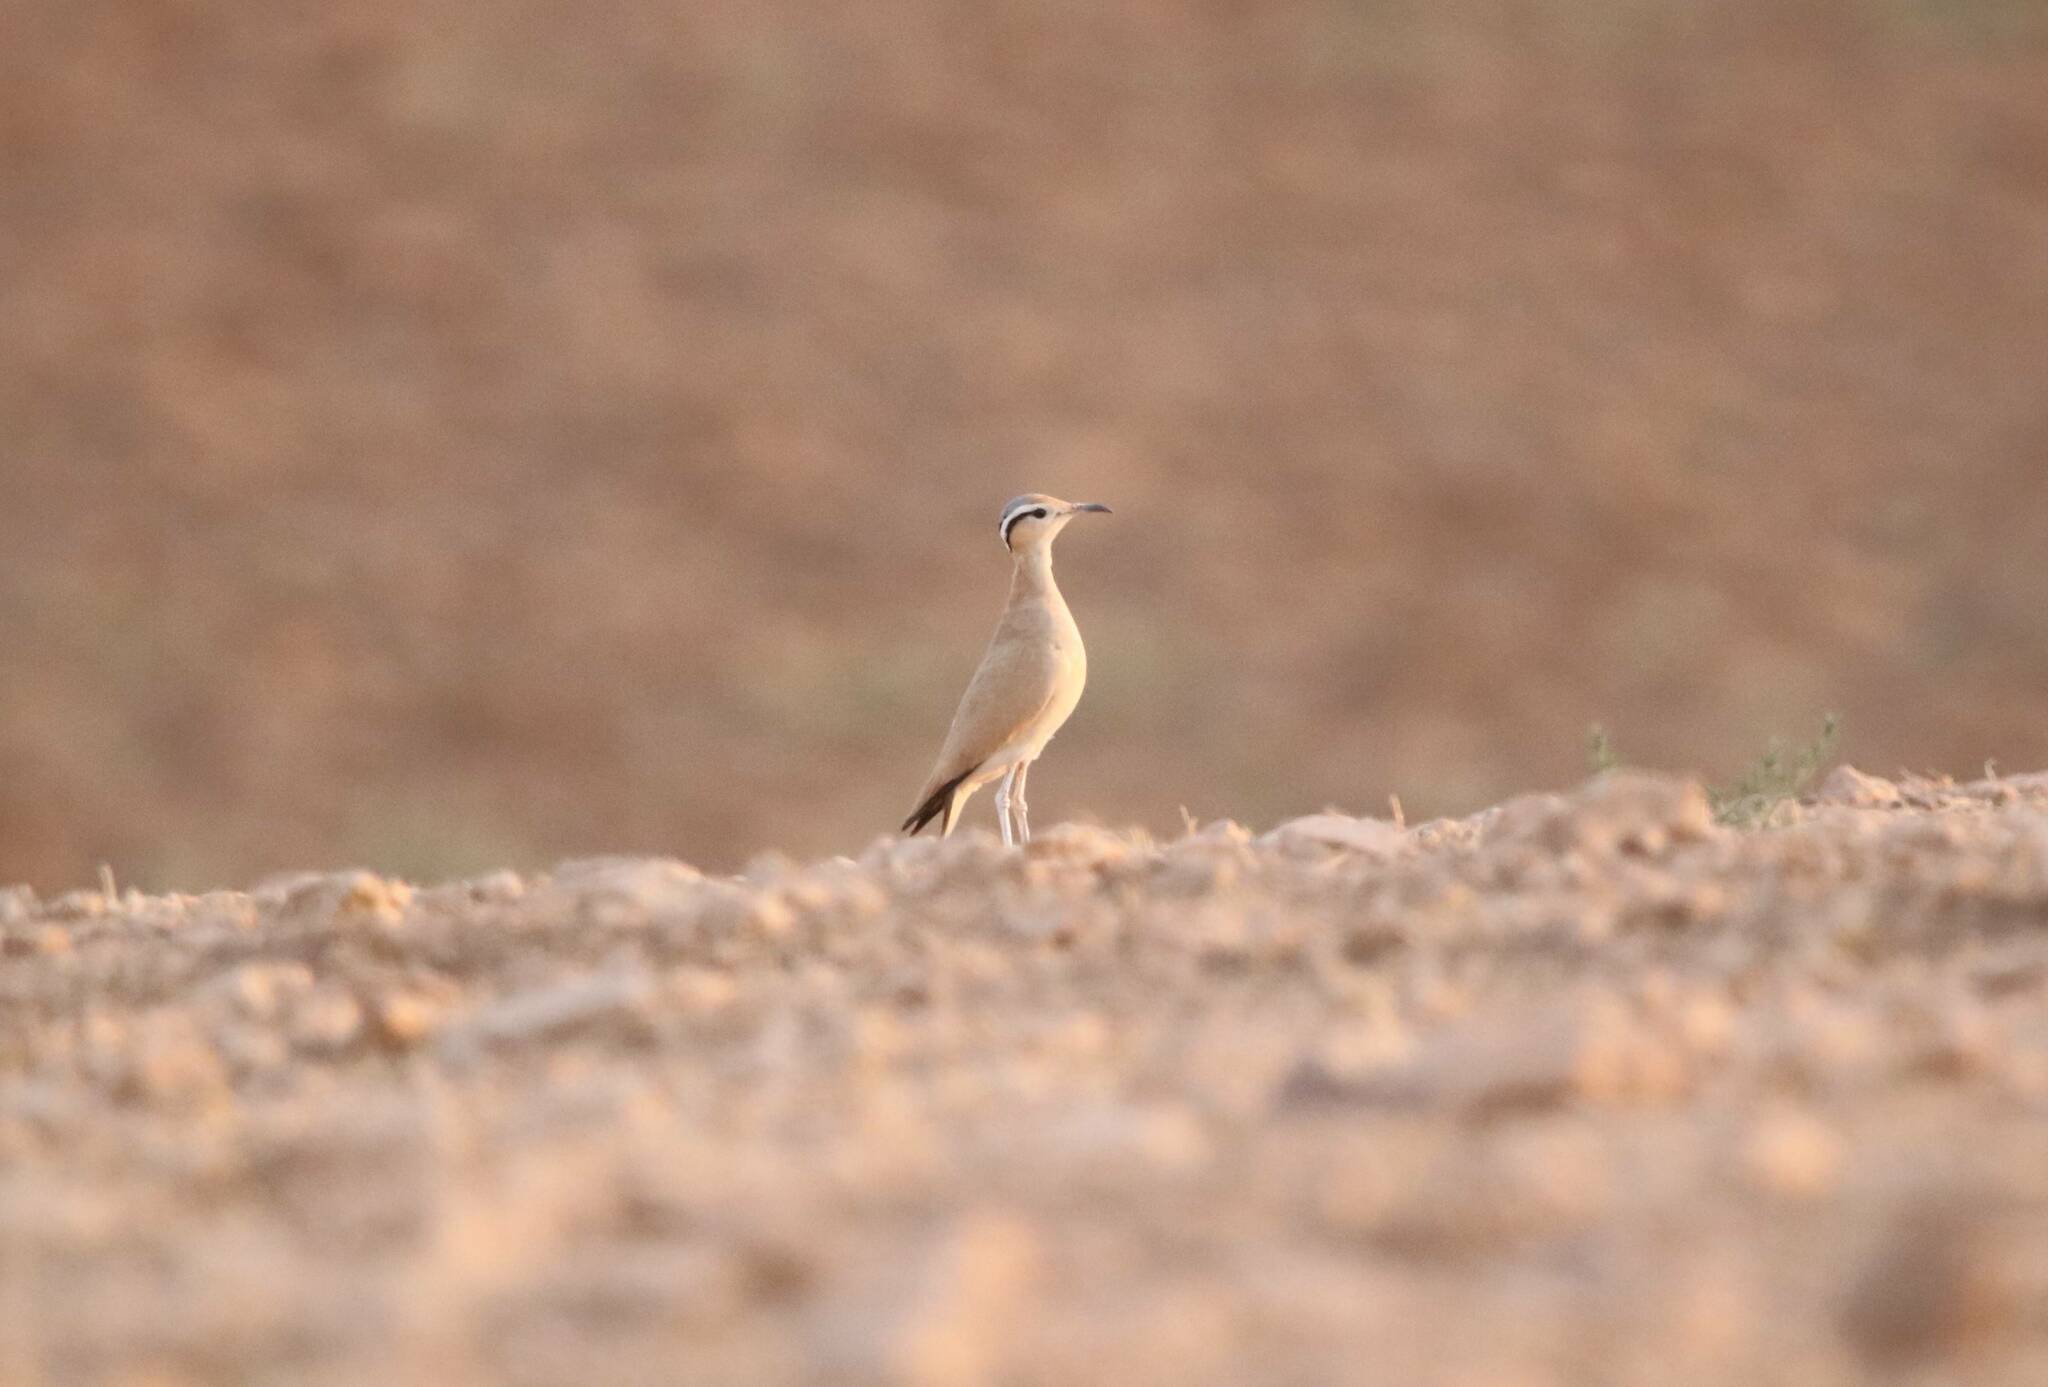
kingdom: Animalia
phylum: Chordata
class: Aves
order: Charadriiformes
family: Glareolidae
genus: Cursorius
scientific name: Cursorius cursor
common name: Cream-colored courser
